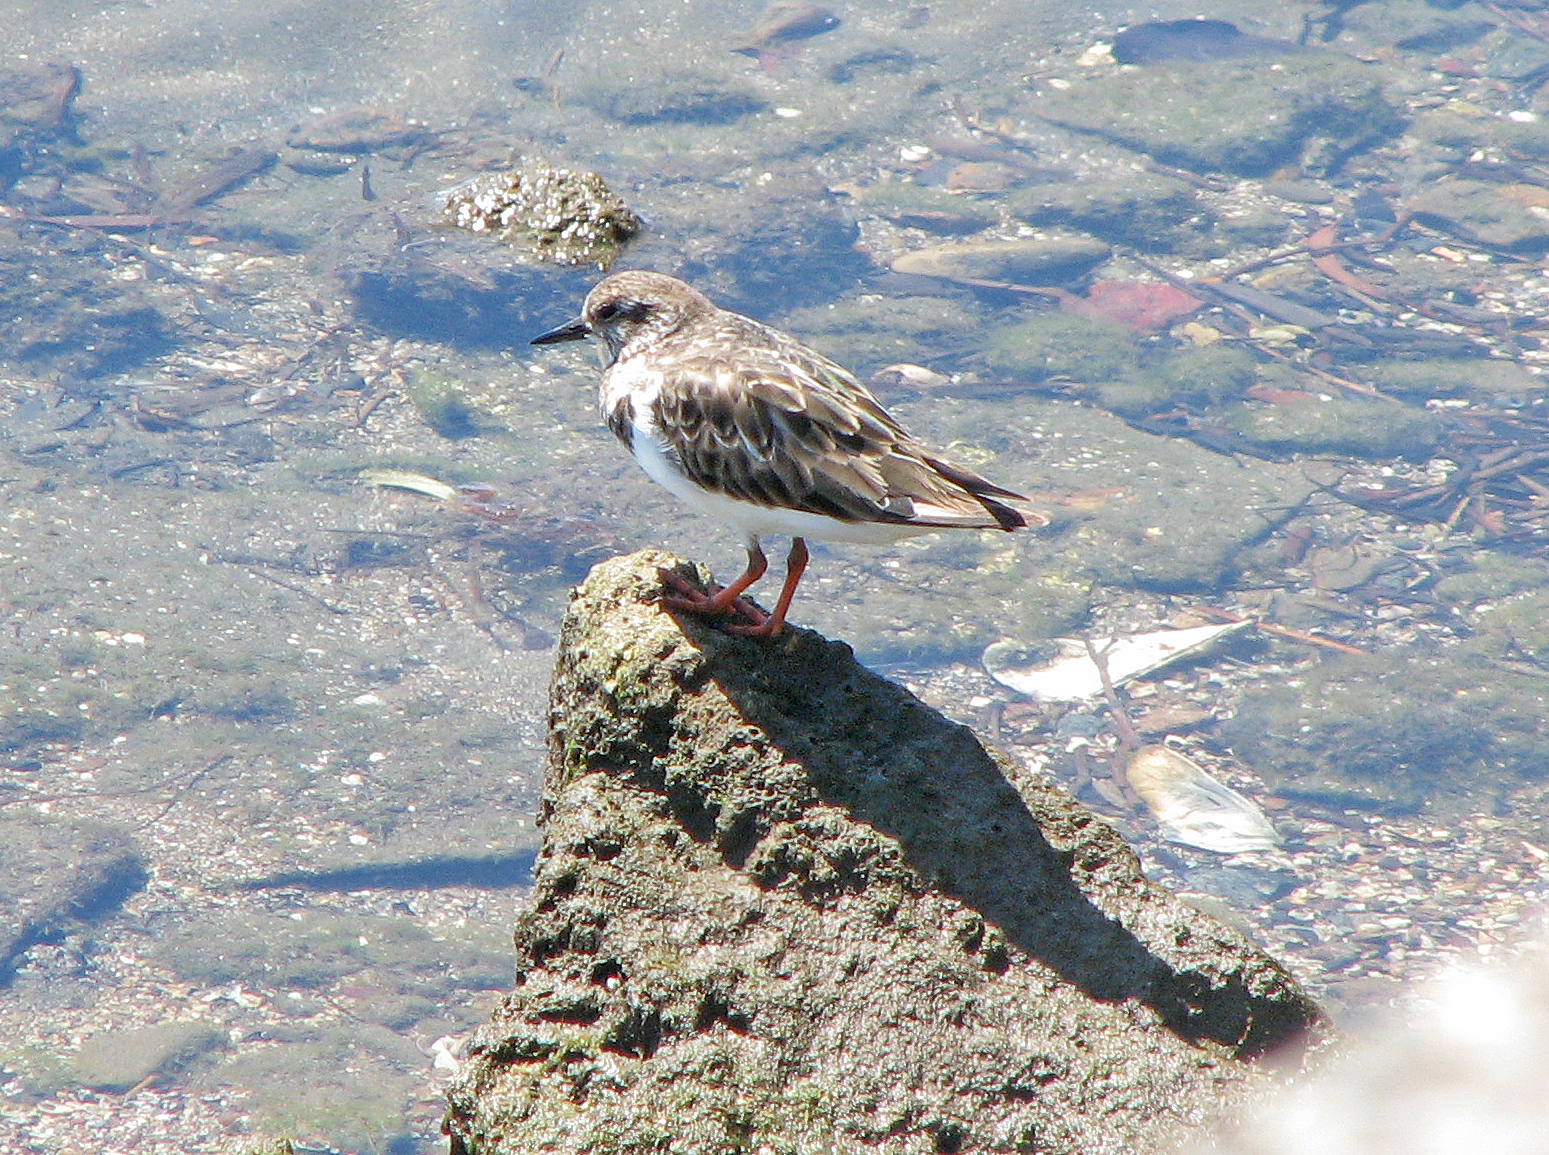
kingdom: Animalia
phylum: Chordata
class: Aves
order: Charadriiformes
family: Scolopacidae
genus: Arenaria
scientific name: Arenaria interpres
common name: Ruddy turnstone
